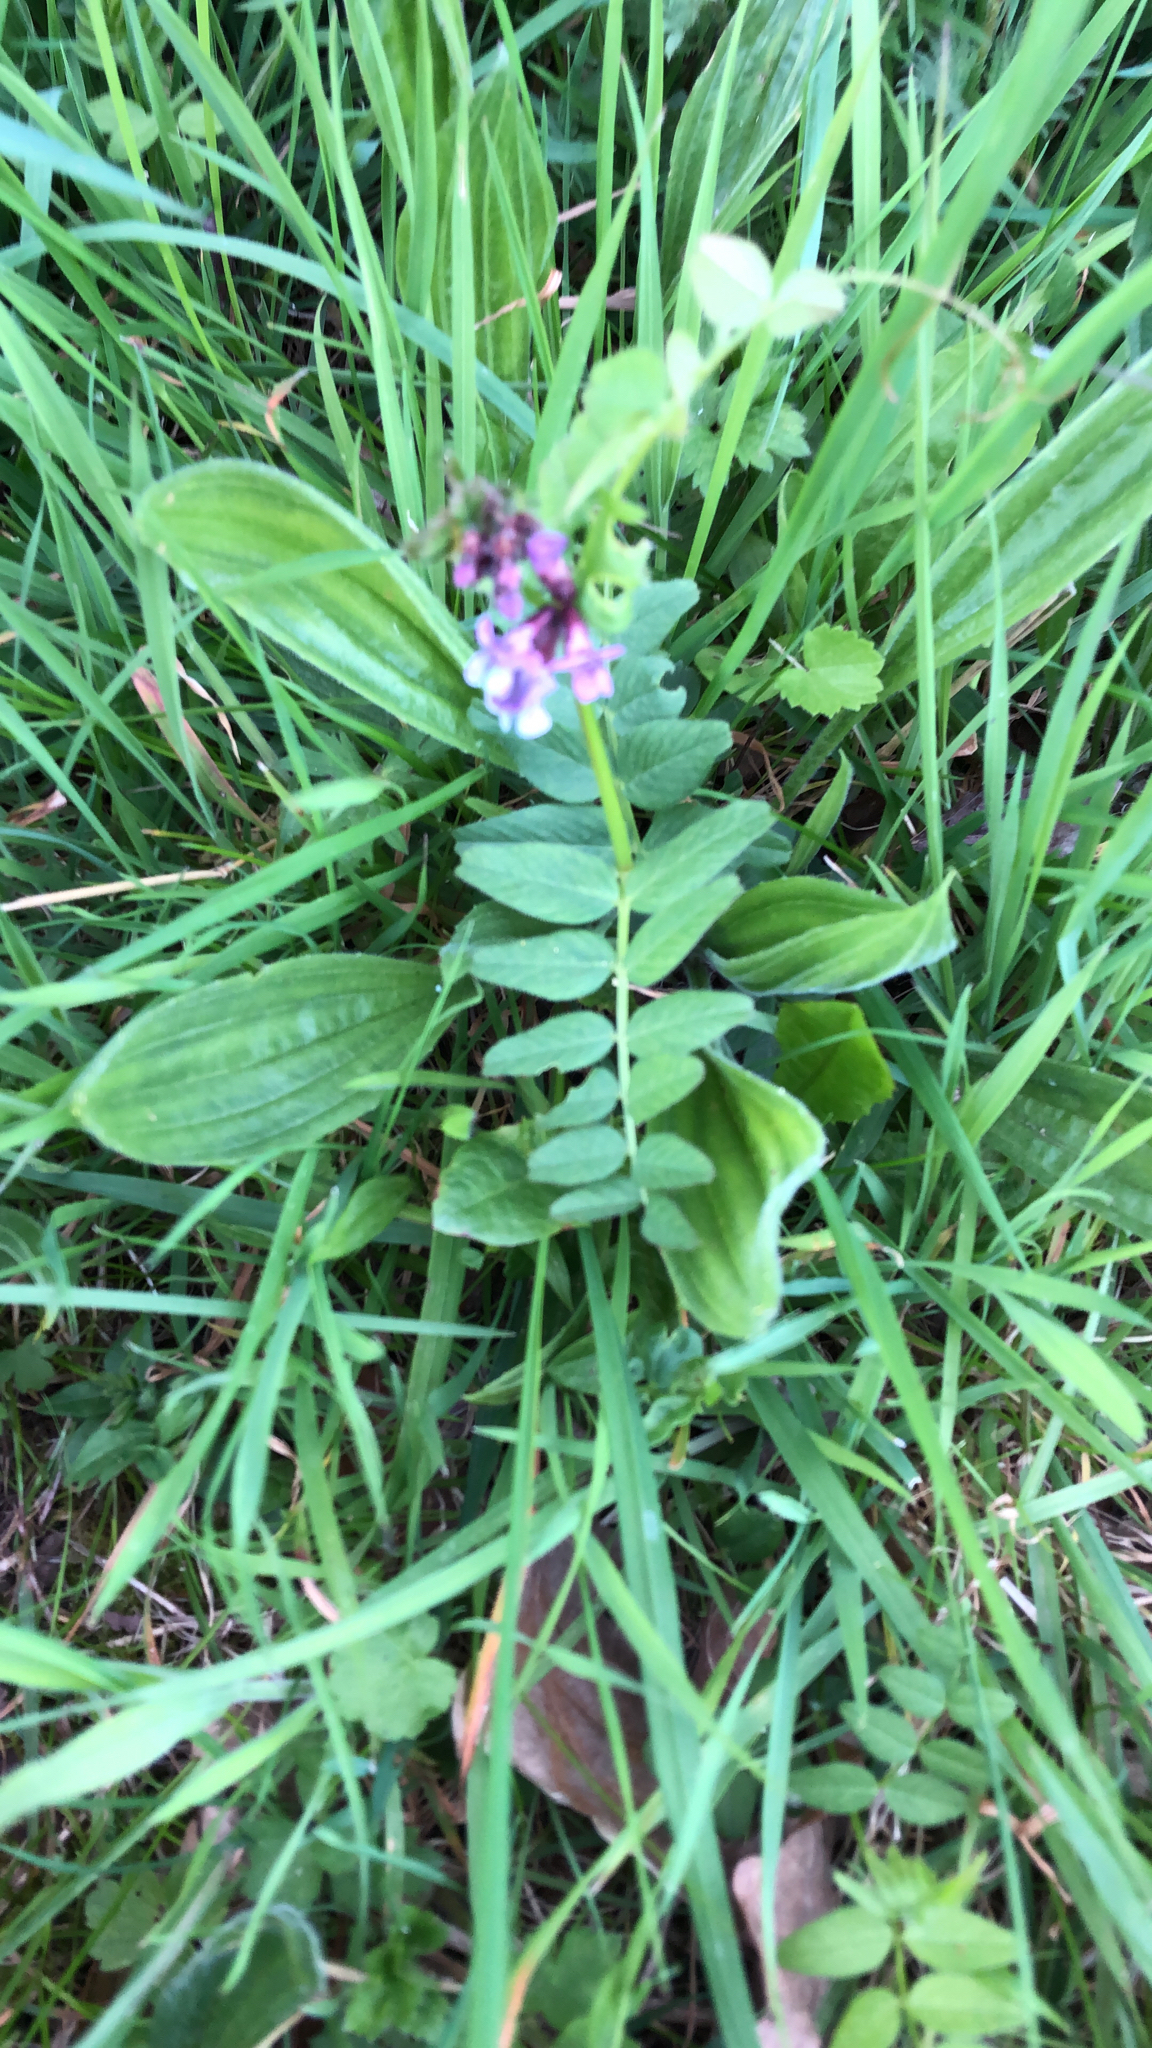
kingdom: Plantae
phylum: Tracheophyta
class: Magnoliopsida
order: Fabales
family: Fabaceae
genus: Vicia
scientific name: Vicia sepium
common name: Bush vetch
